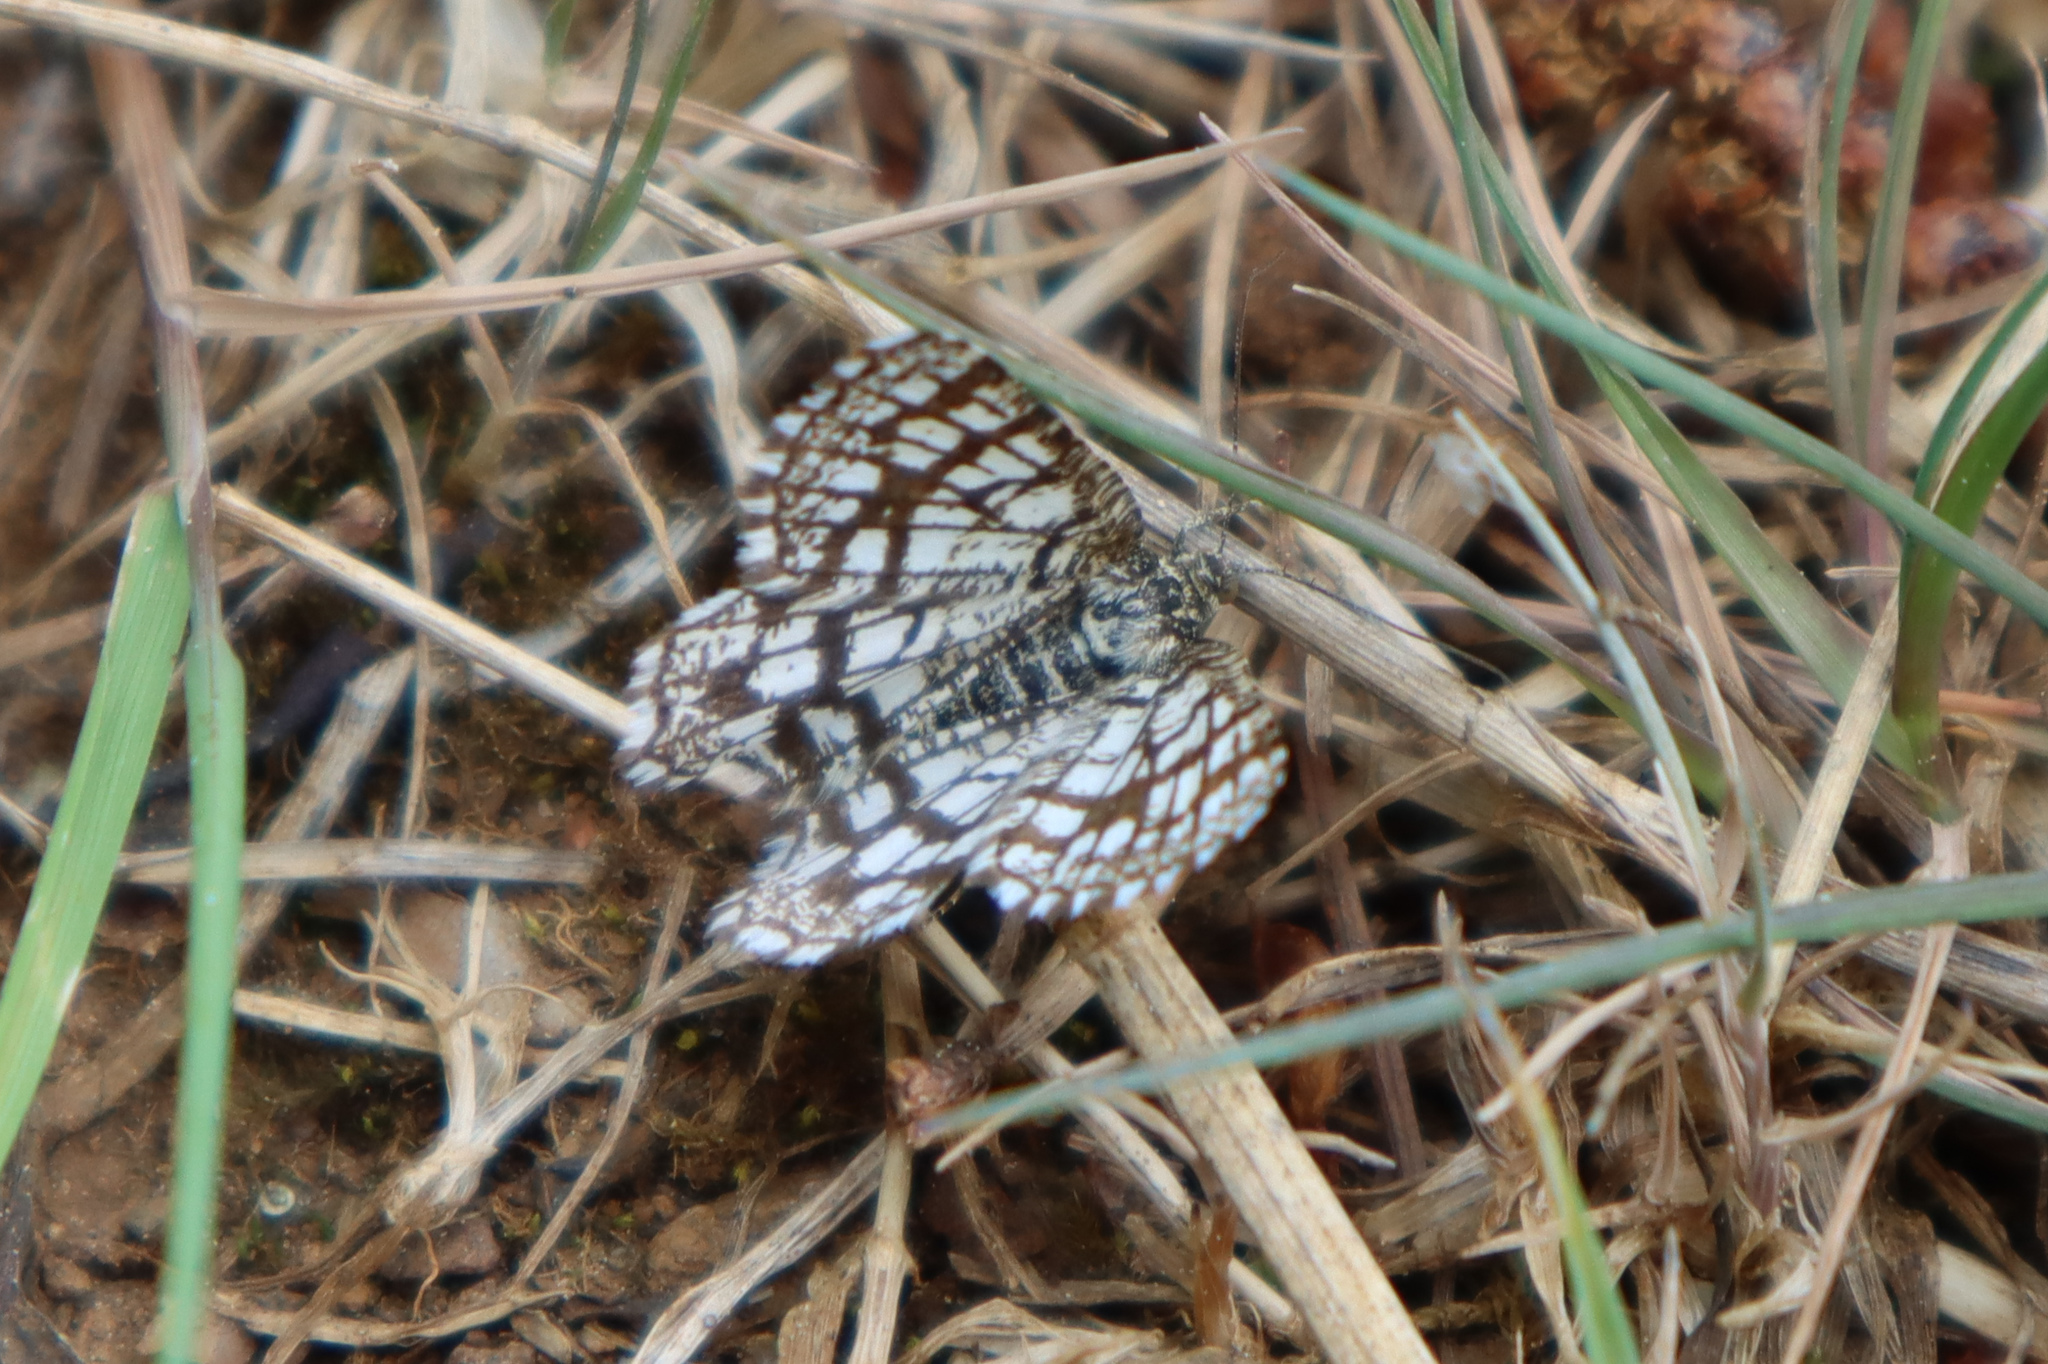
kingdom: Animalia
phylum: Arthropoda
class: Insecta
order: Lepidoptera
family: Geometridae
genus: Chiasmia
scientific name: Chiasmia clathrata
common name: Latticed heath
